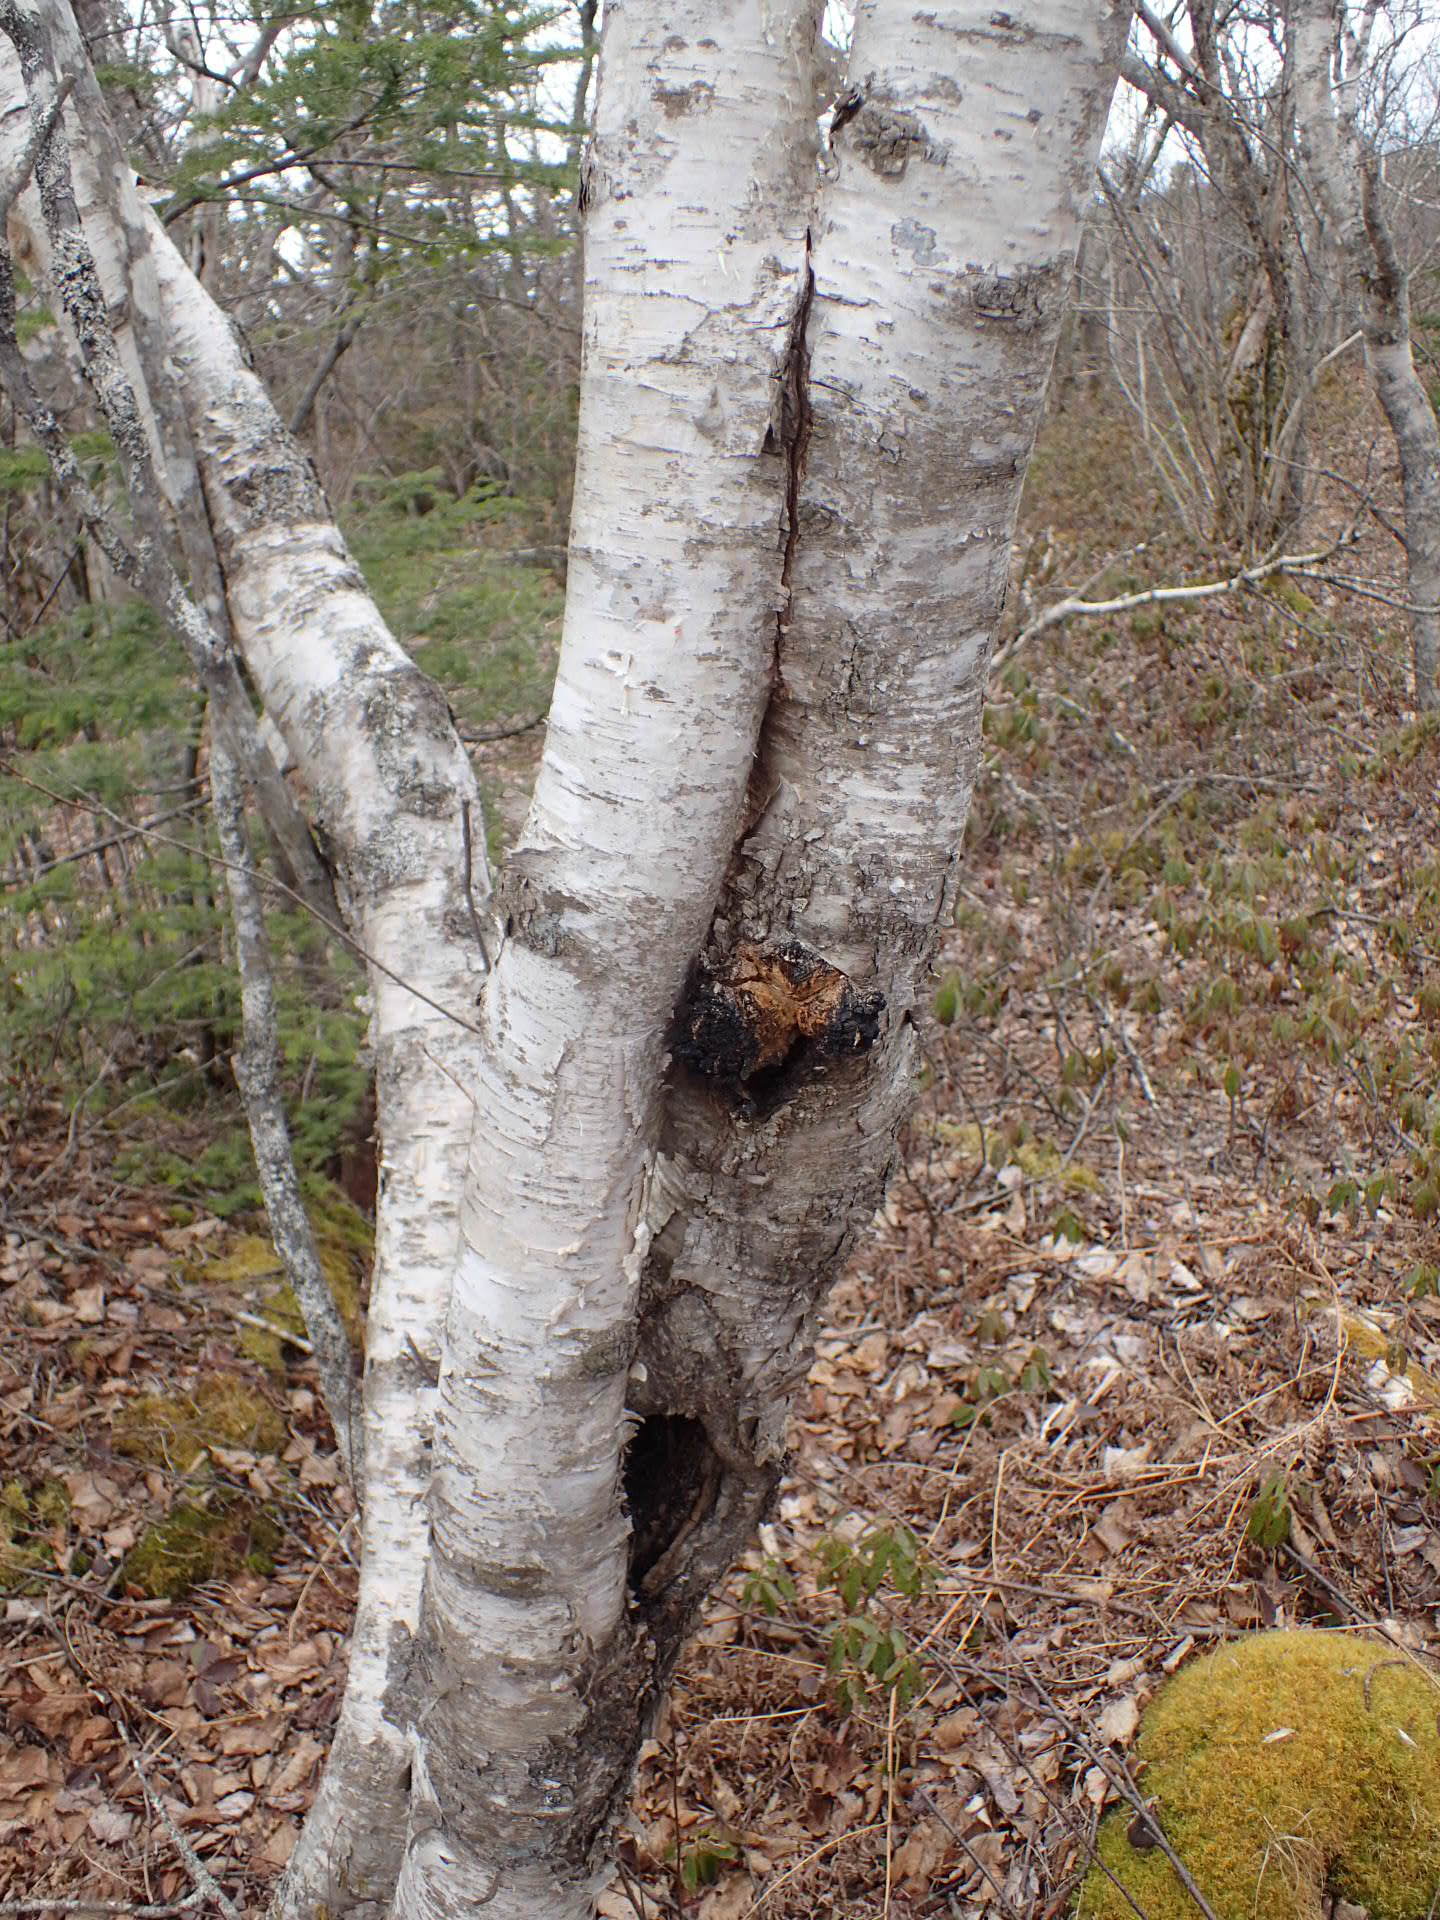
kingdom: Fungi
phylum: Basidiomycota
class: Agaricomycetes
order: Hymenochaetales
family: Hymenochaetaceae
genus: Inonotus
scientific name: Inonotus obliquus
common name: Chaga
